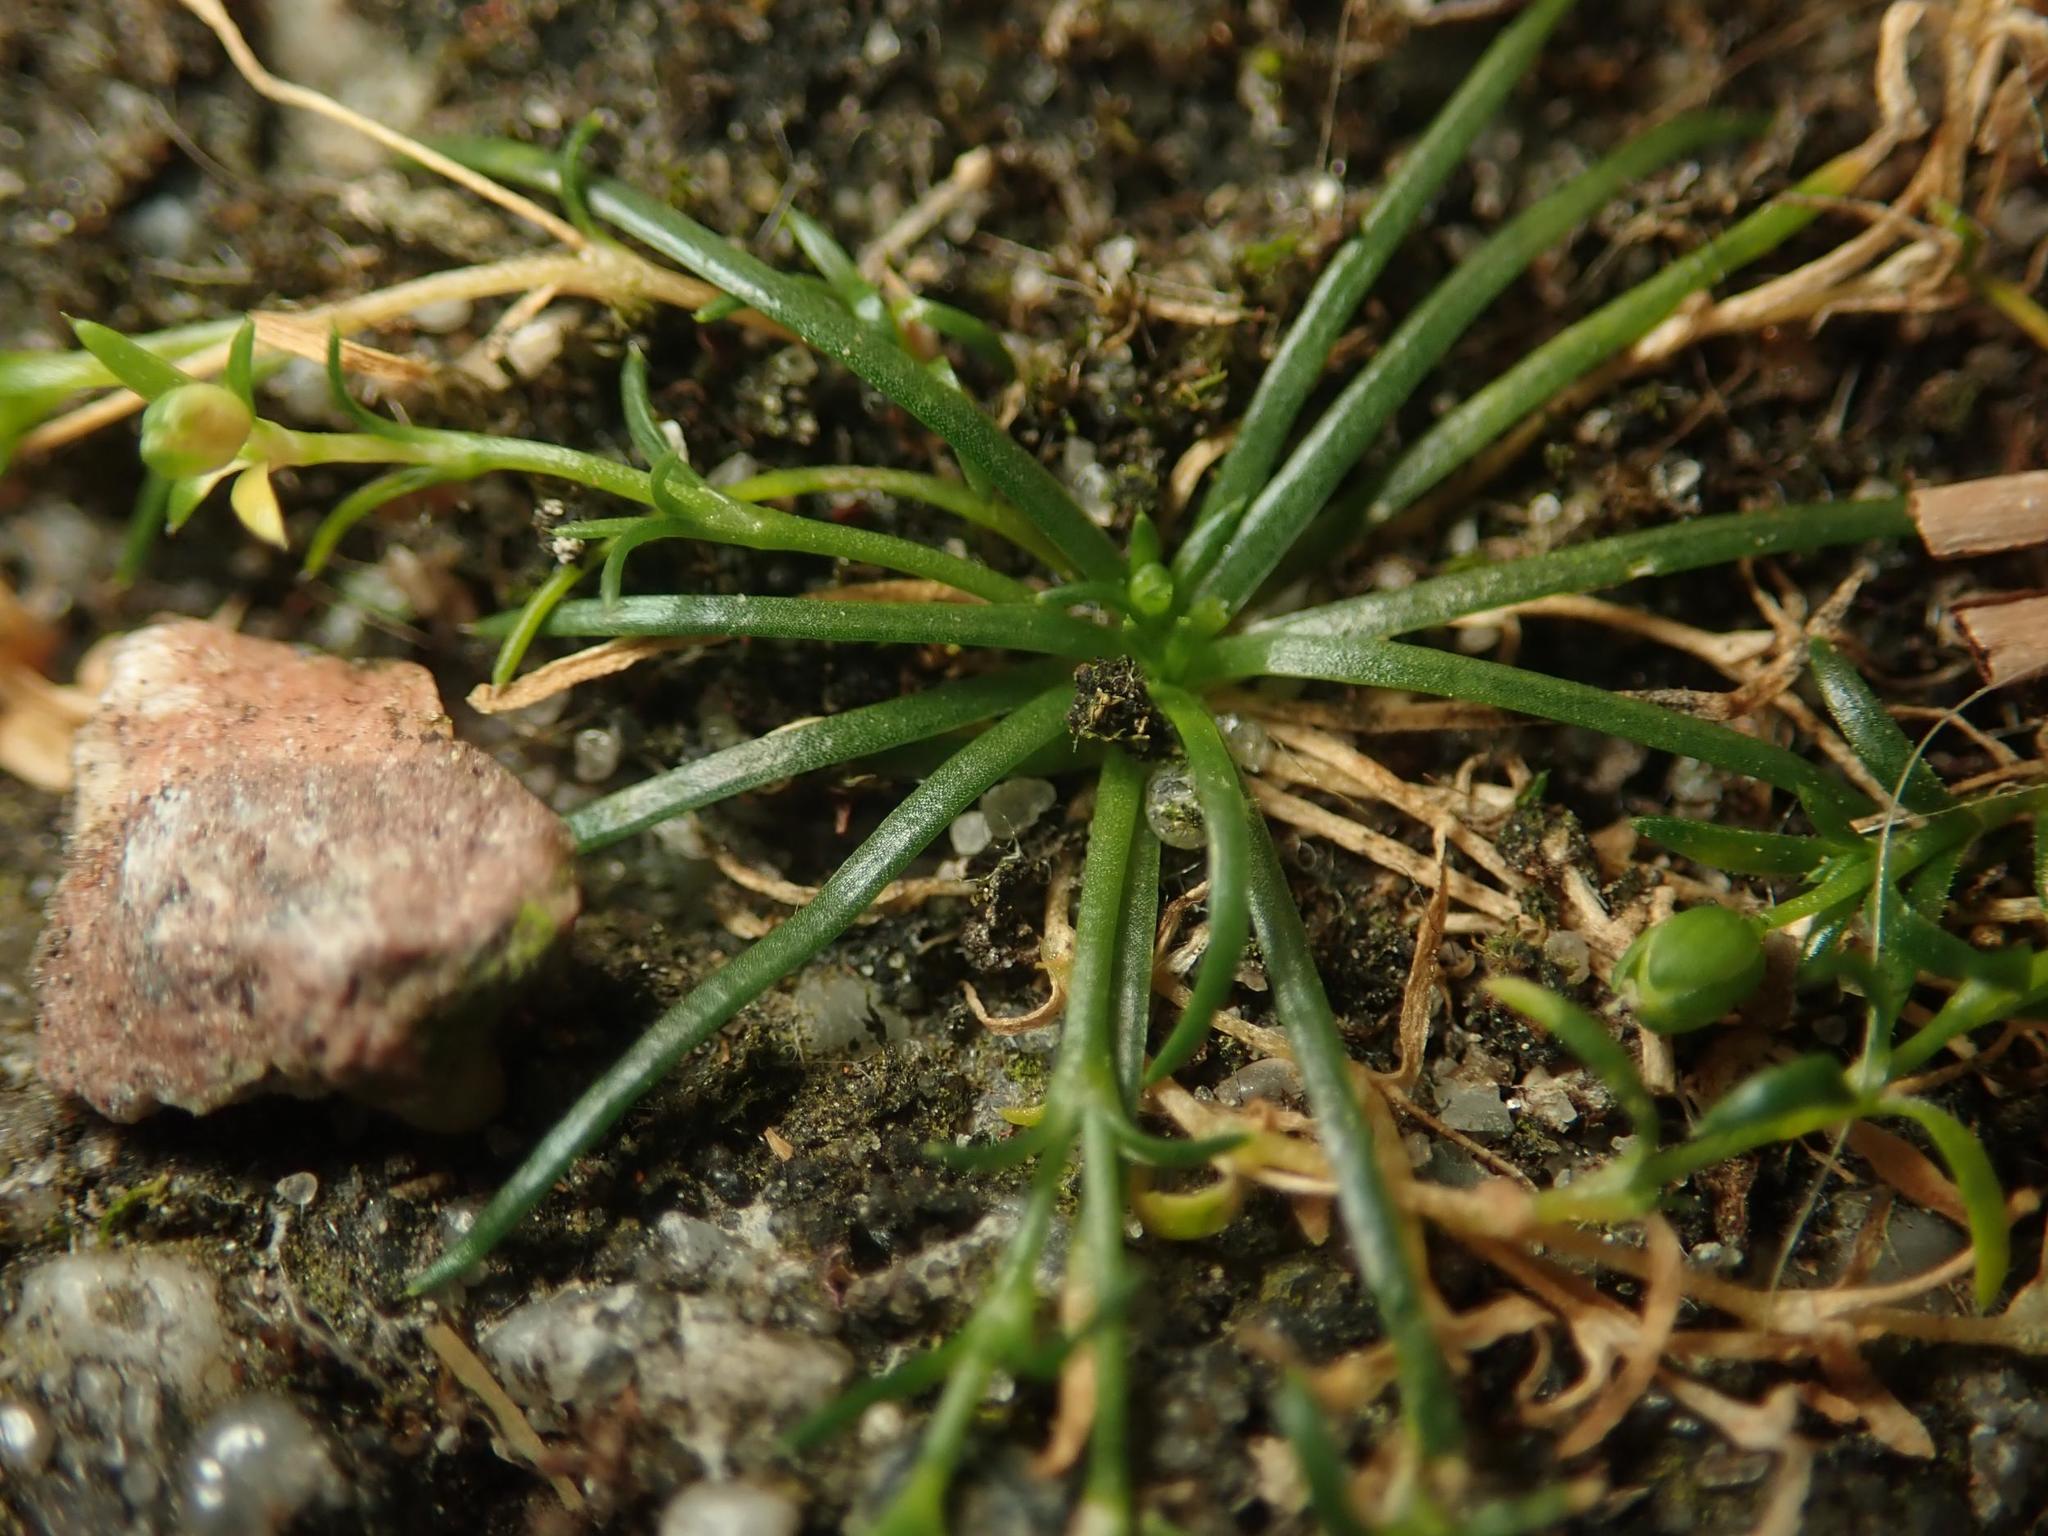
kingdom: Plantae
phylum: Tracheophyta
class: Magnoliopsida
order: Caryophyllales
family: Caryophyllaceae
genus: Sagina
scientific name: Sagina procumbens
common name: Procumbent pearlwort
